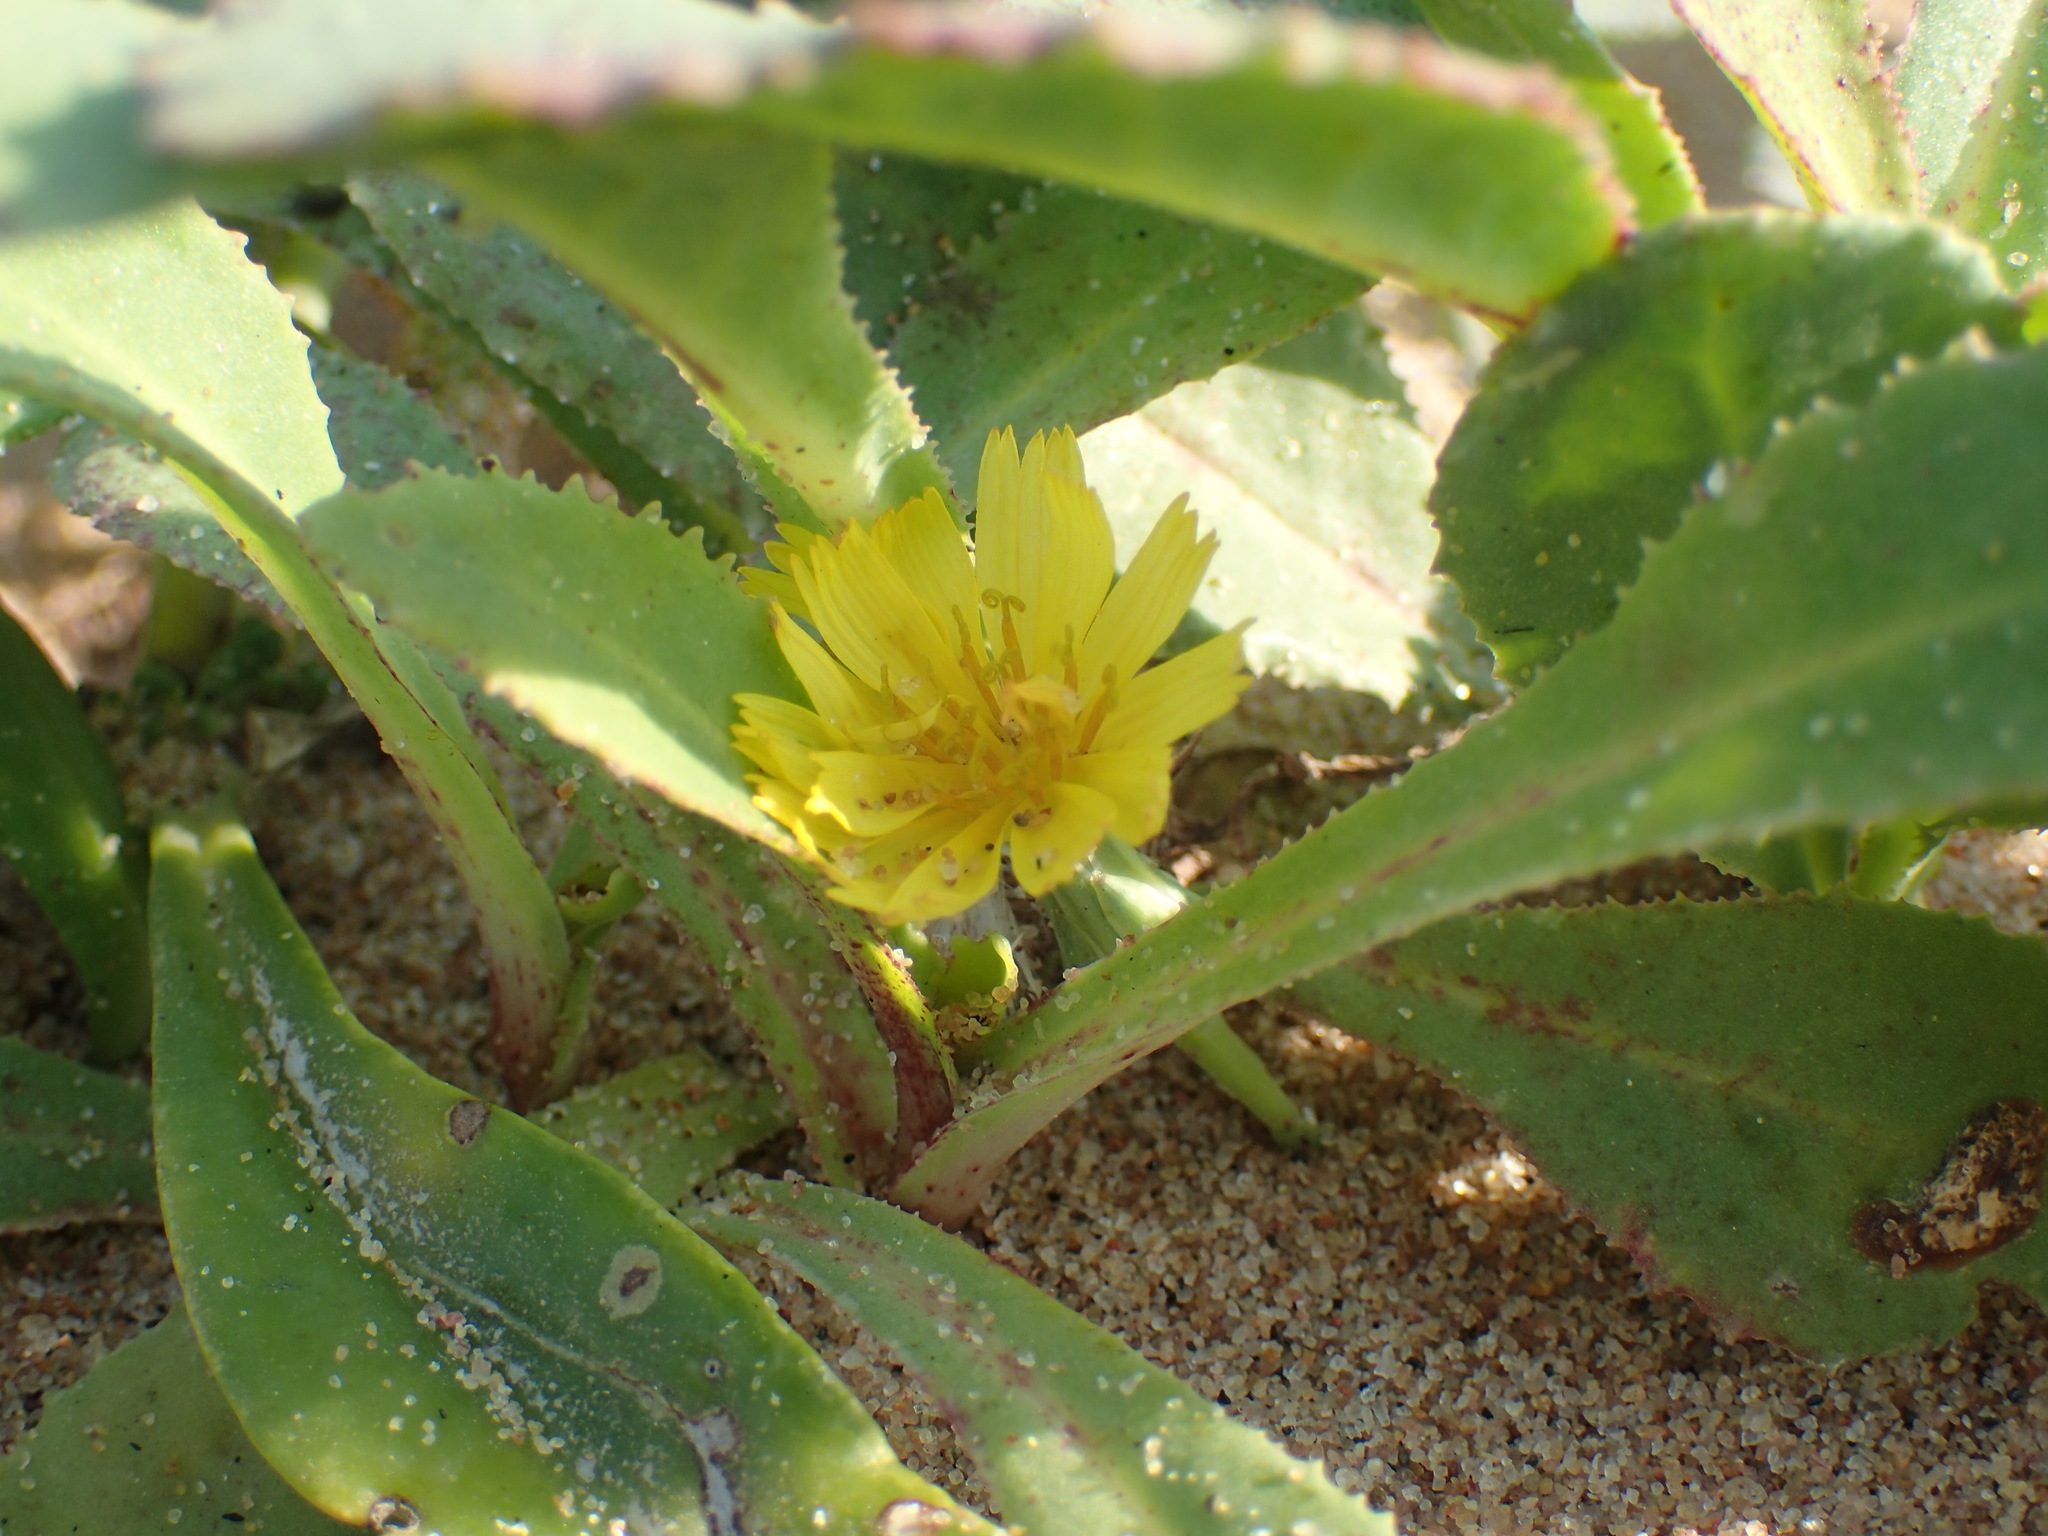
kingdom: Plantae
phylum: Tracheophyta
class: Magnoliopsida
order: Asterales
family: Asteraceae
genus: Launaea
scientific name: Launaea sarmentosa
